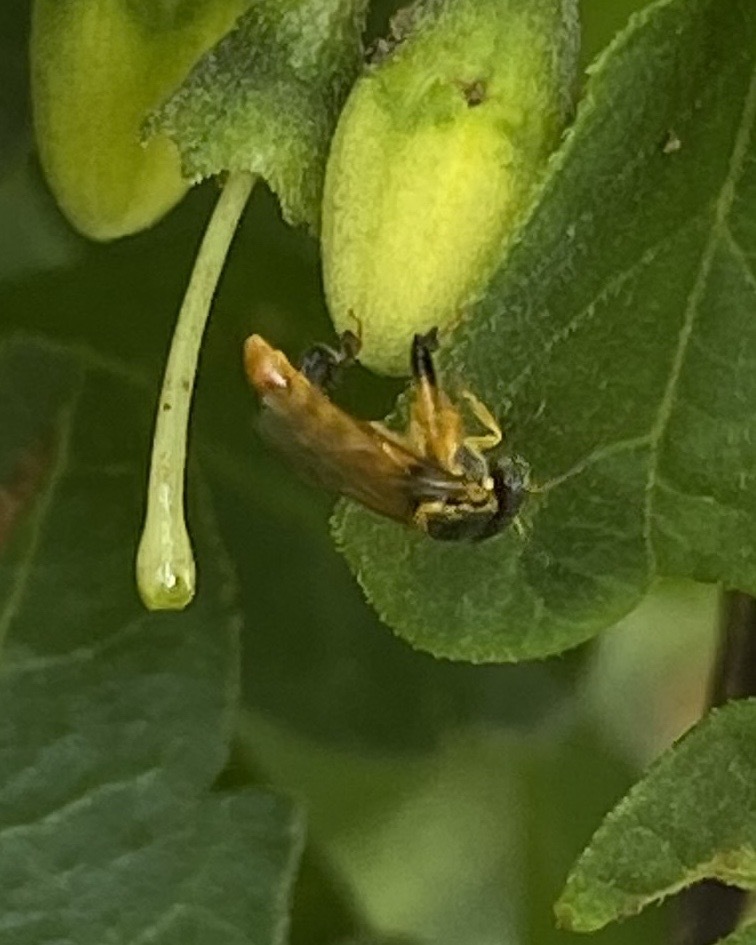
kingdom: Animalia
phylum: Arthropoda
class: Insecta
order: Hymenoptera
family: Apidae
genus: Tetragonisca
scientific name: Tetragonisca angustula
